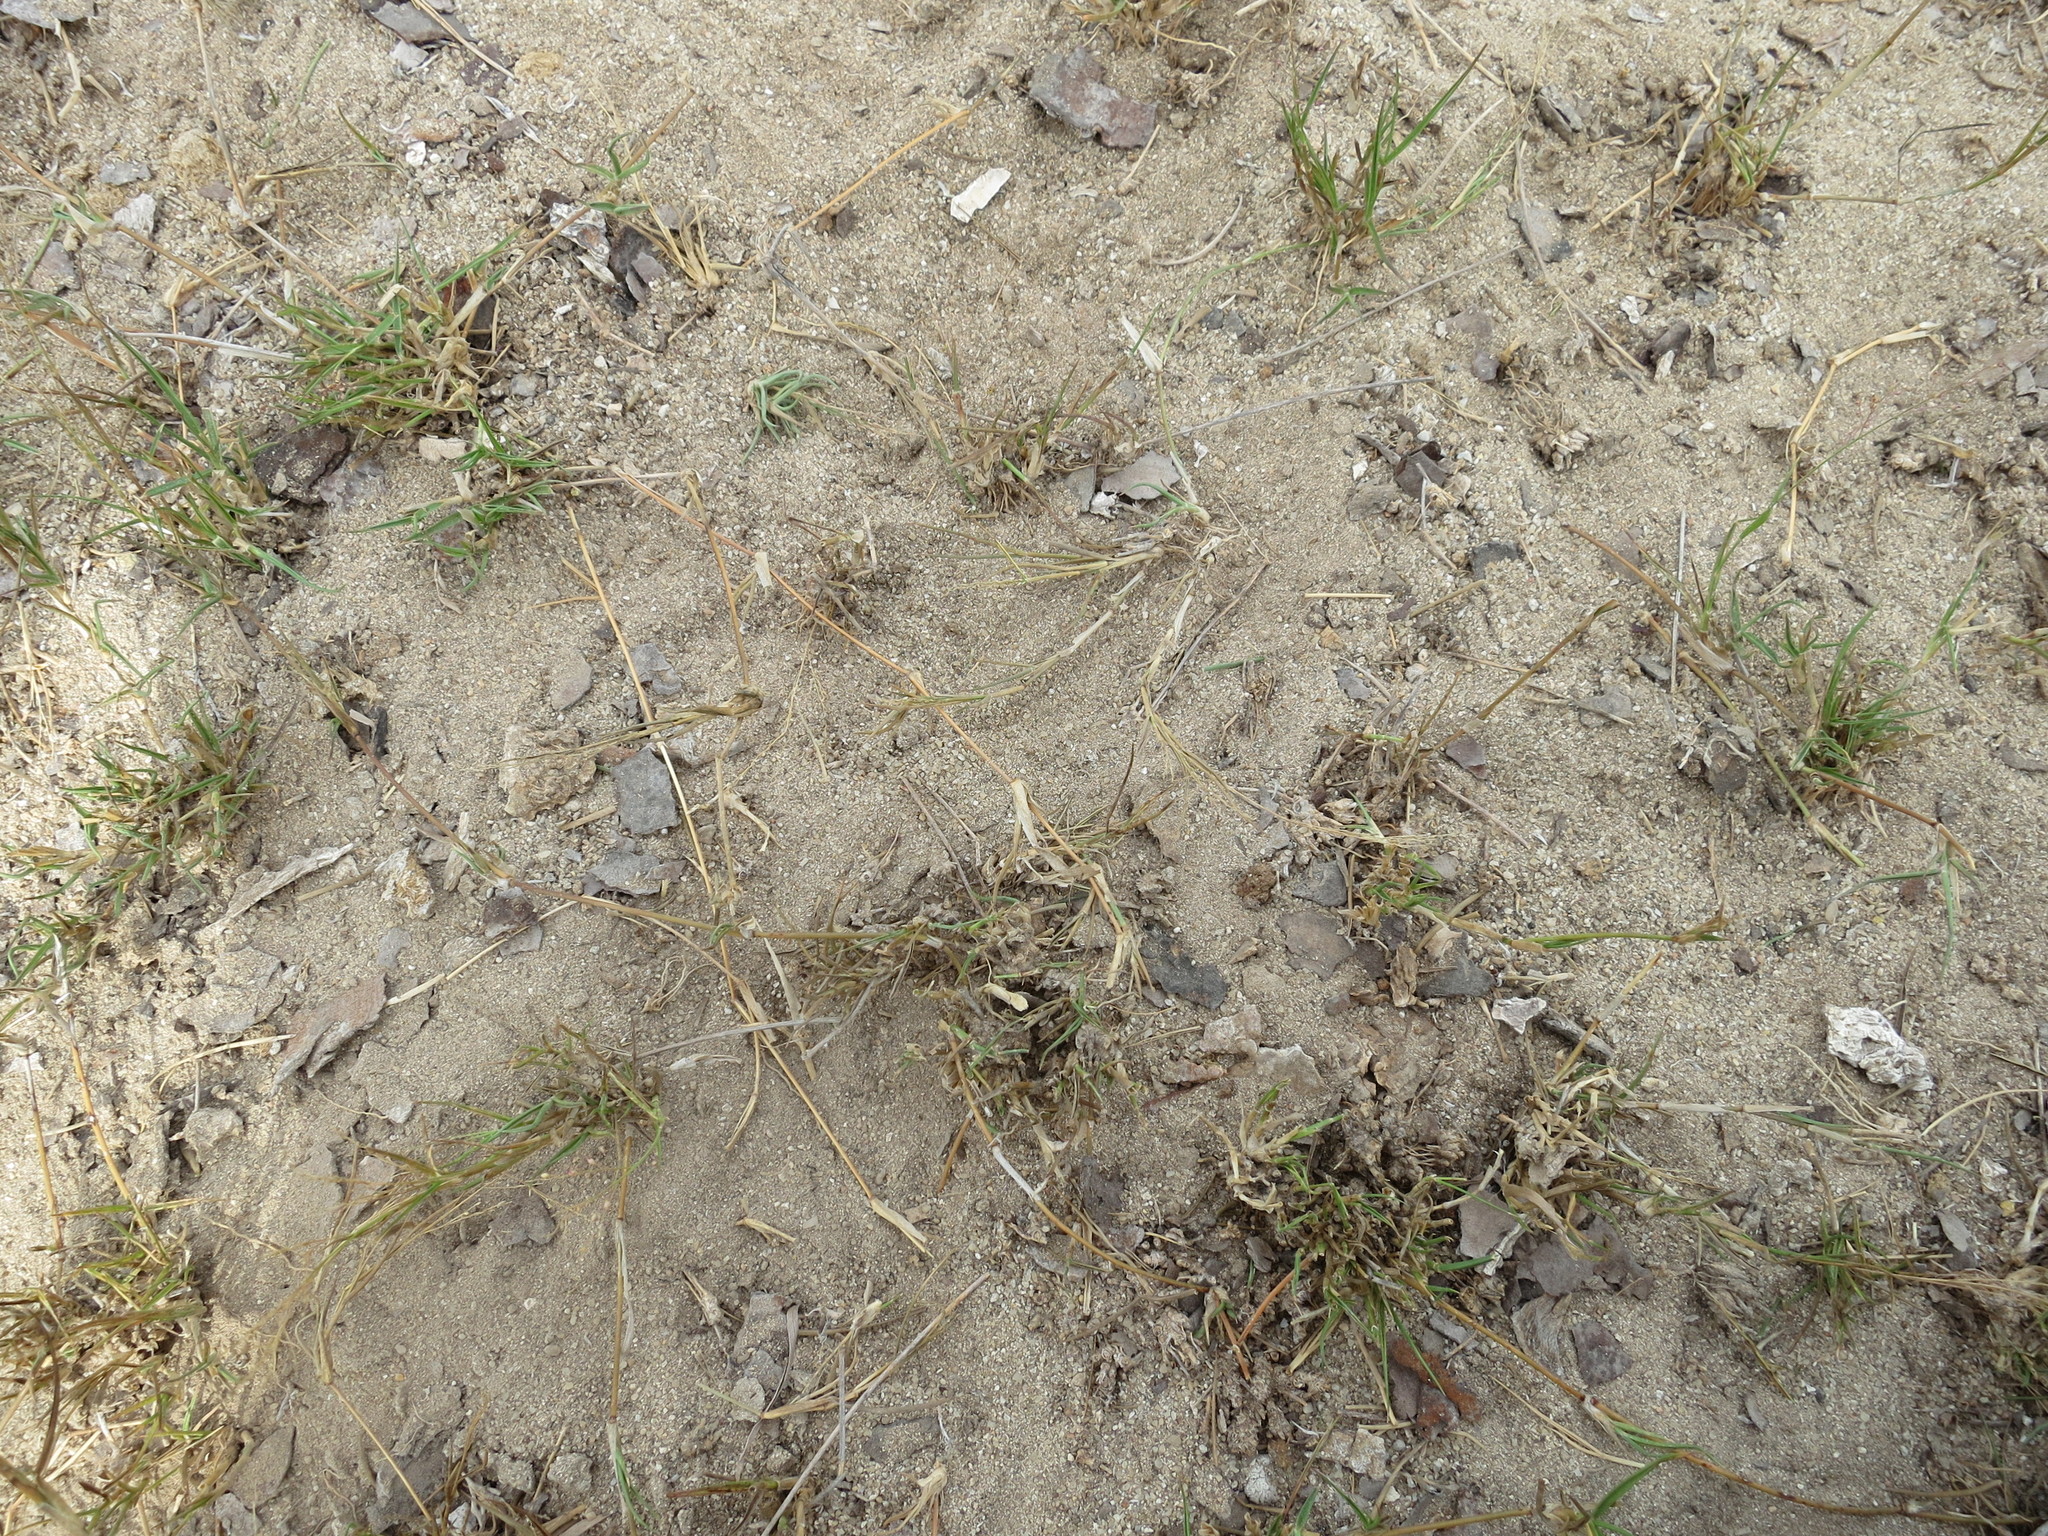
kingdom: Plantae
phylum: Tracheophyta
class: Liliopsida
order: Poales
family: Poaceae
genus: Panicum
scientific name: Panicum voeltzkowii
